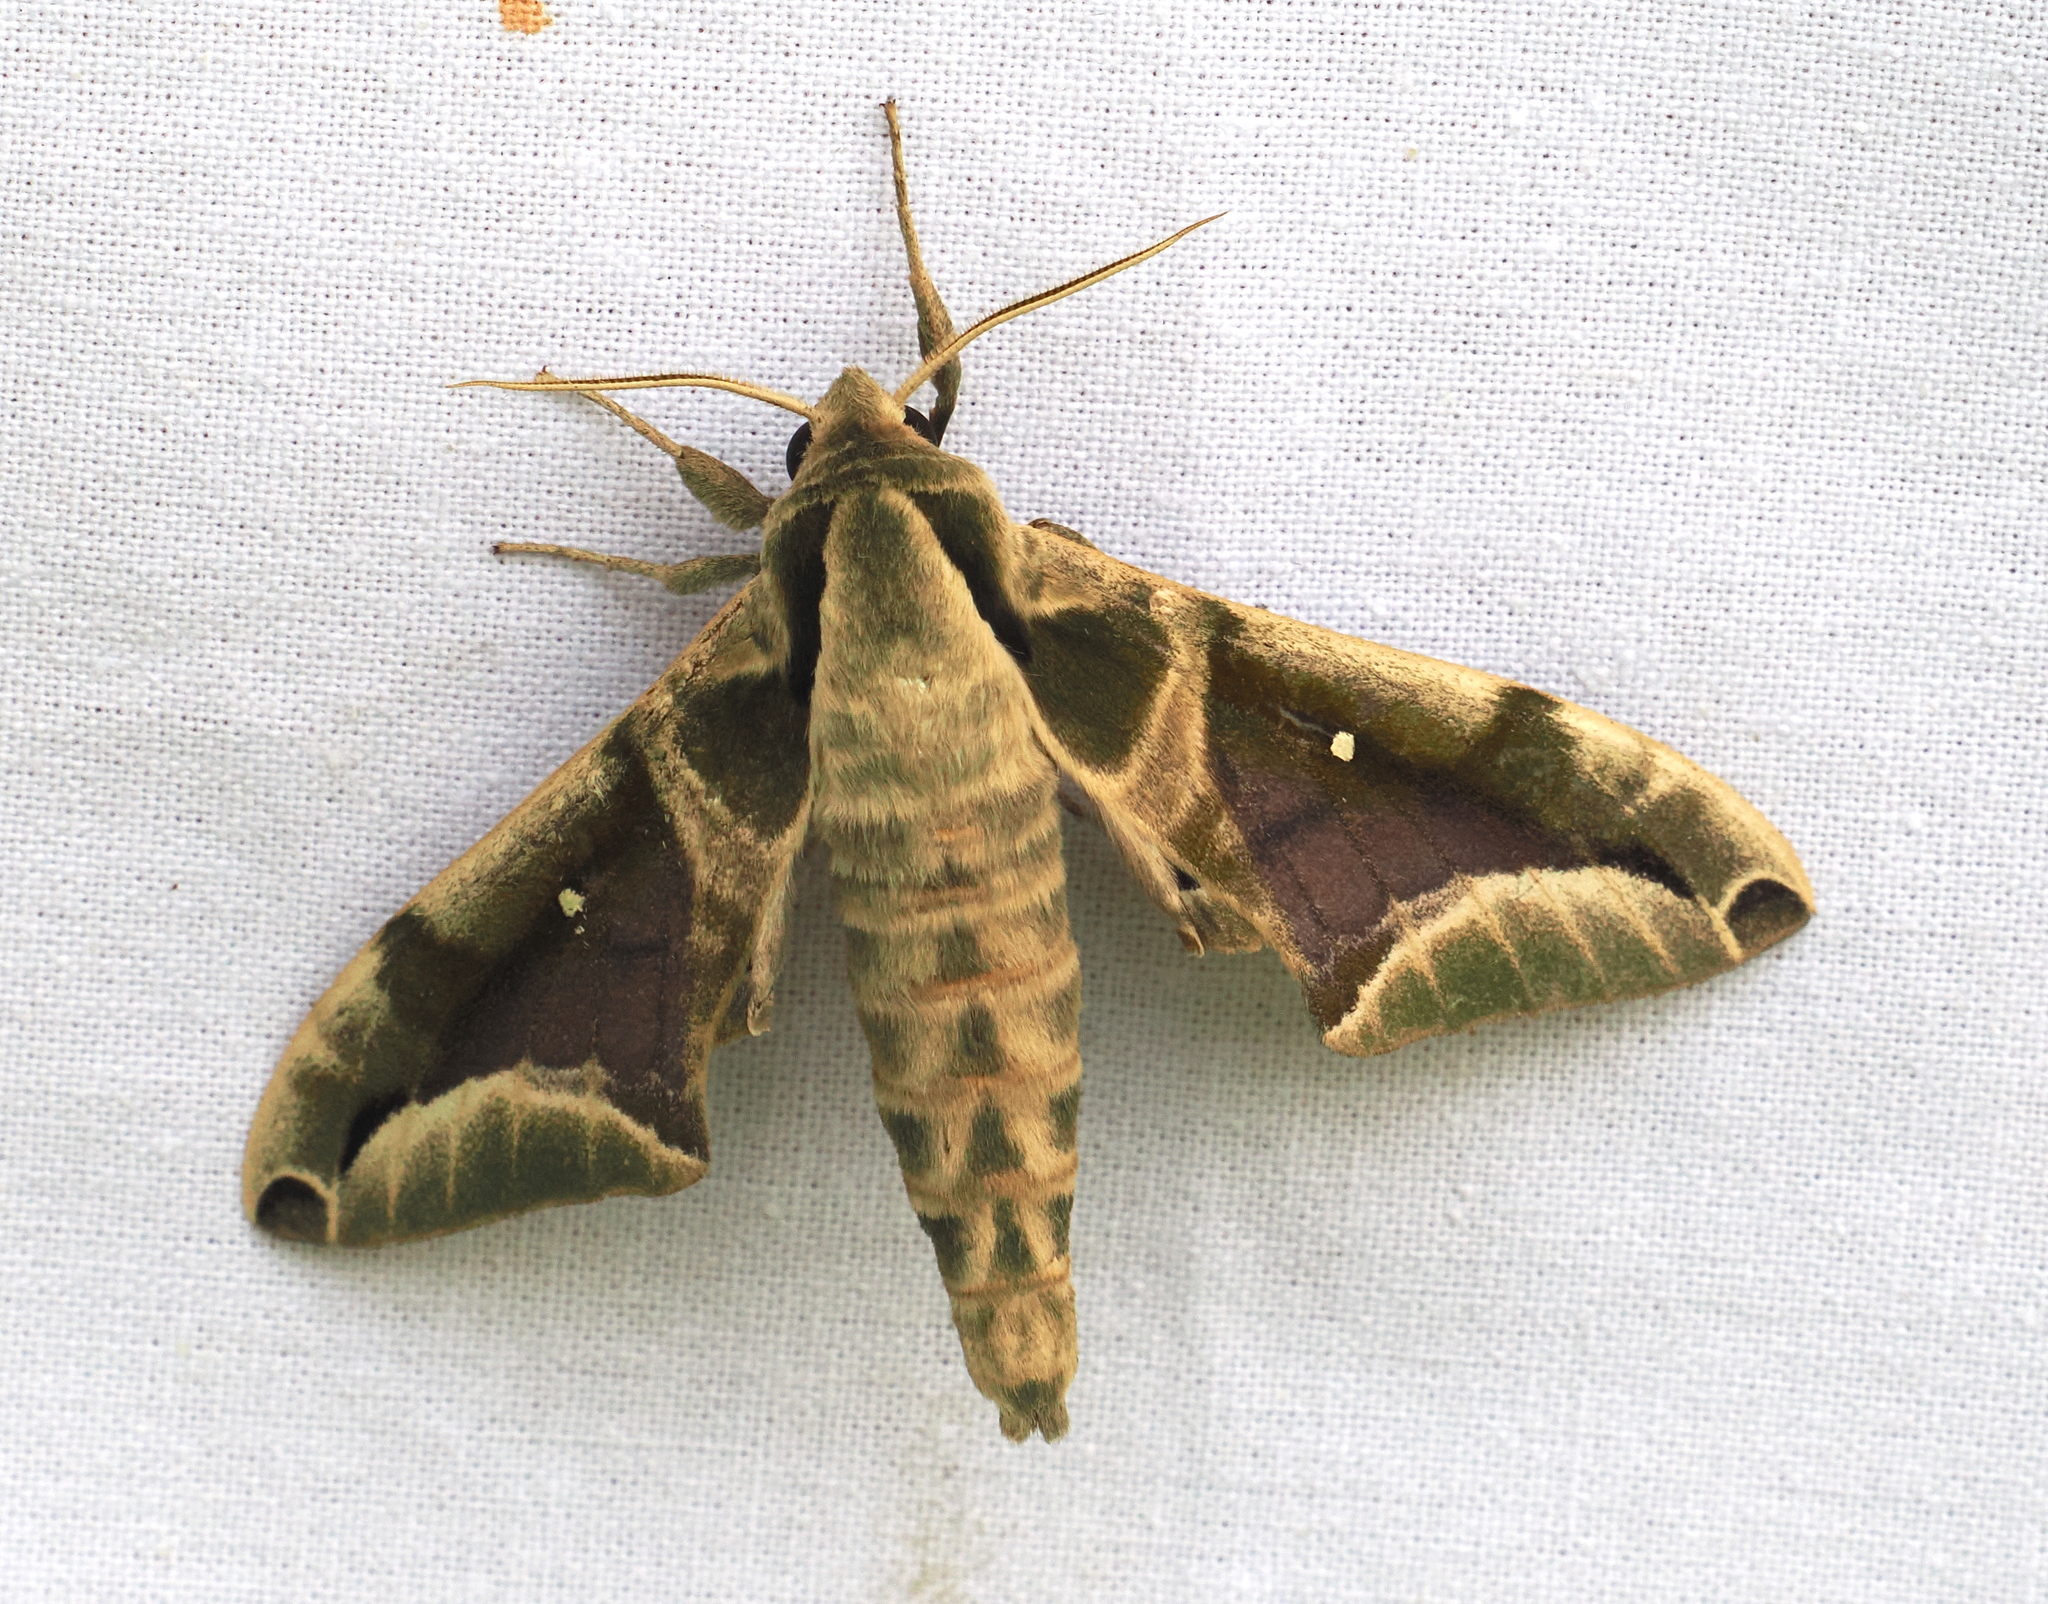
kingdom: Animalia
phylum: Arthropoda
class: Insecta
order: Lepidoptera
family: Sphingidae
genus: Parum
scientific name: Parum colligata
